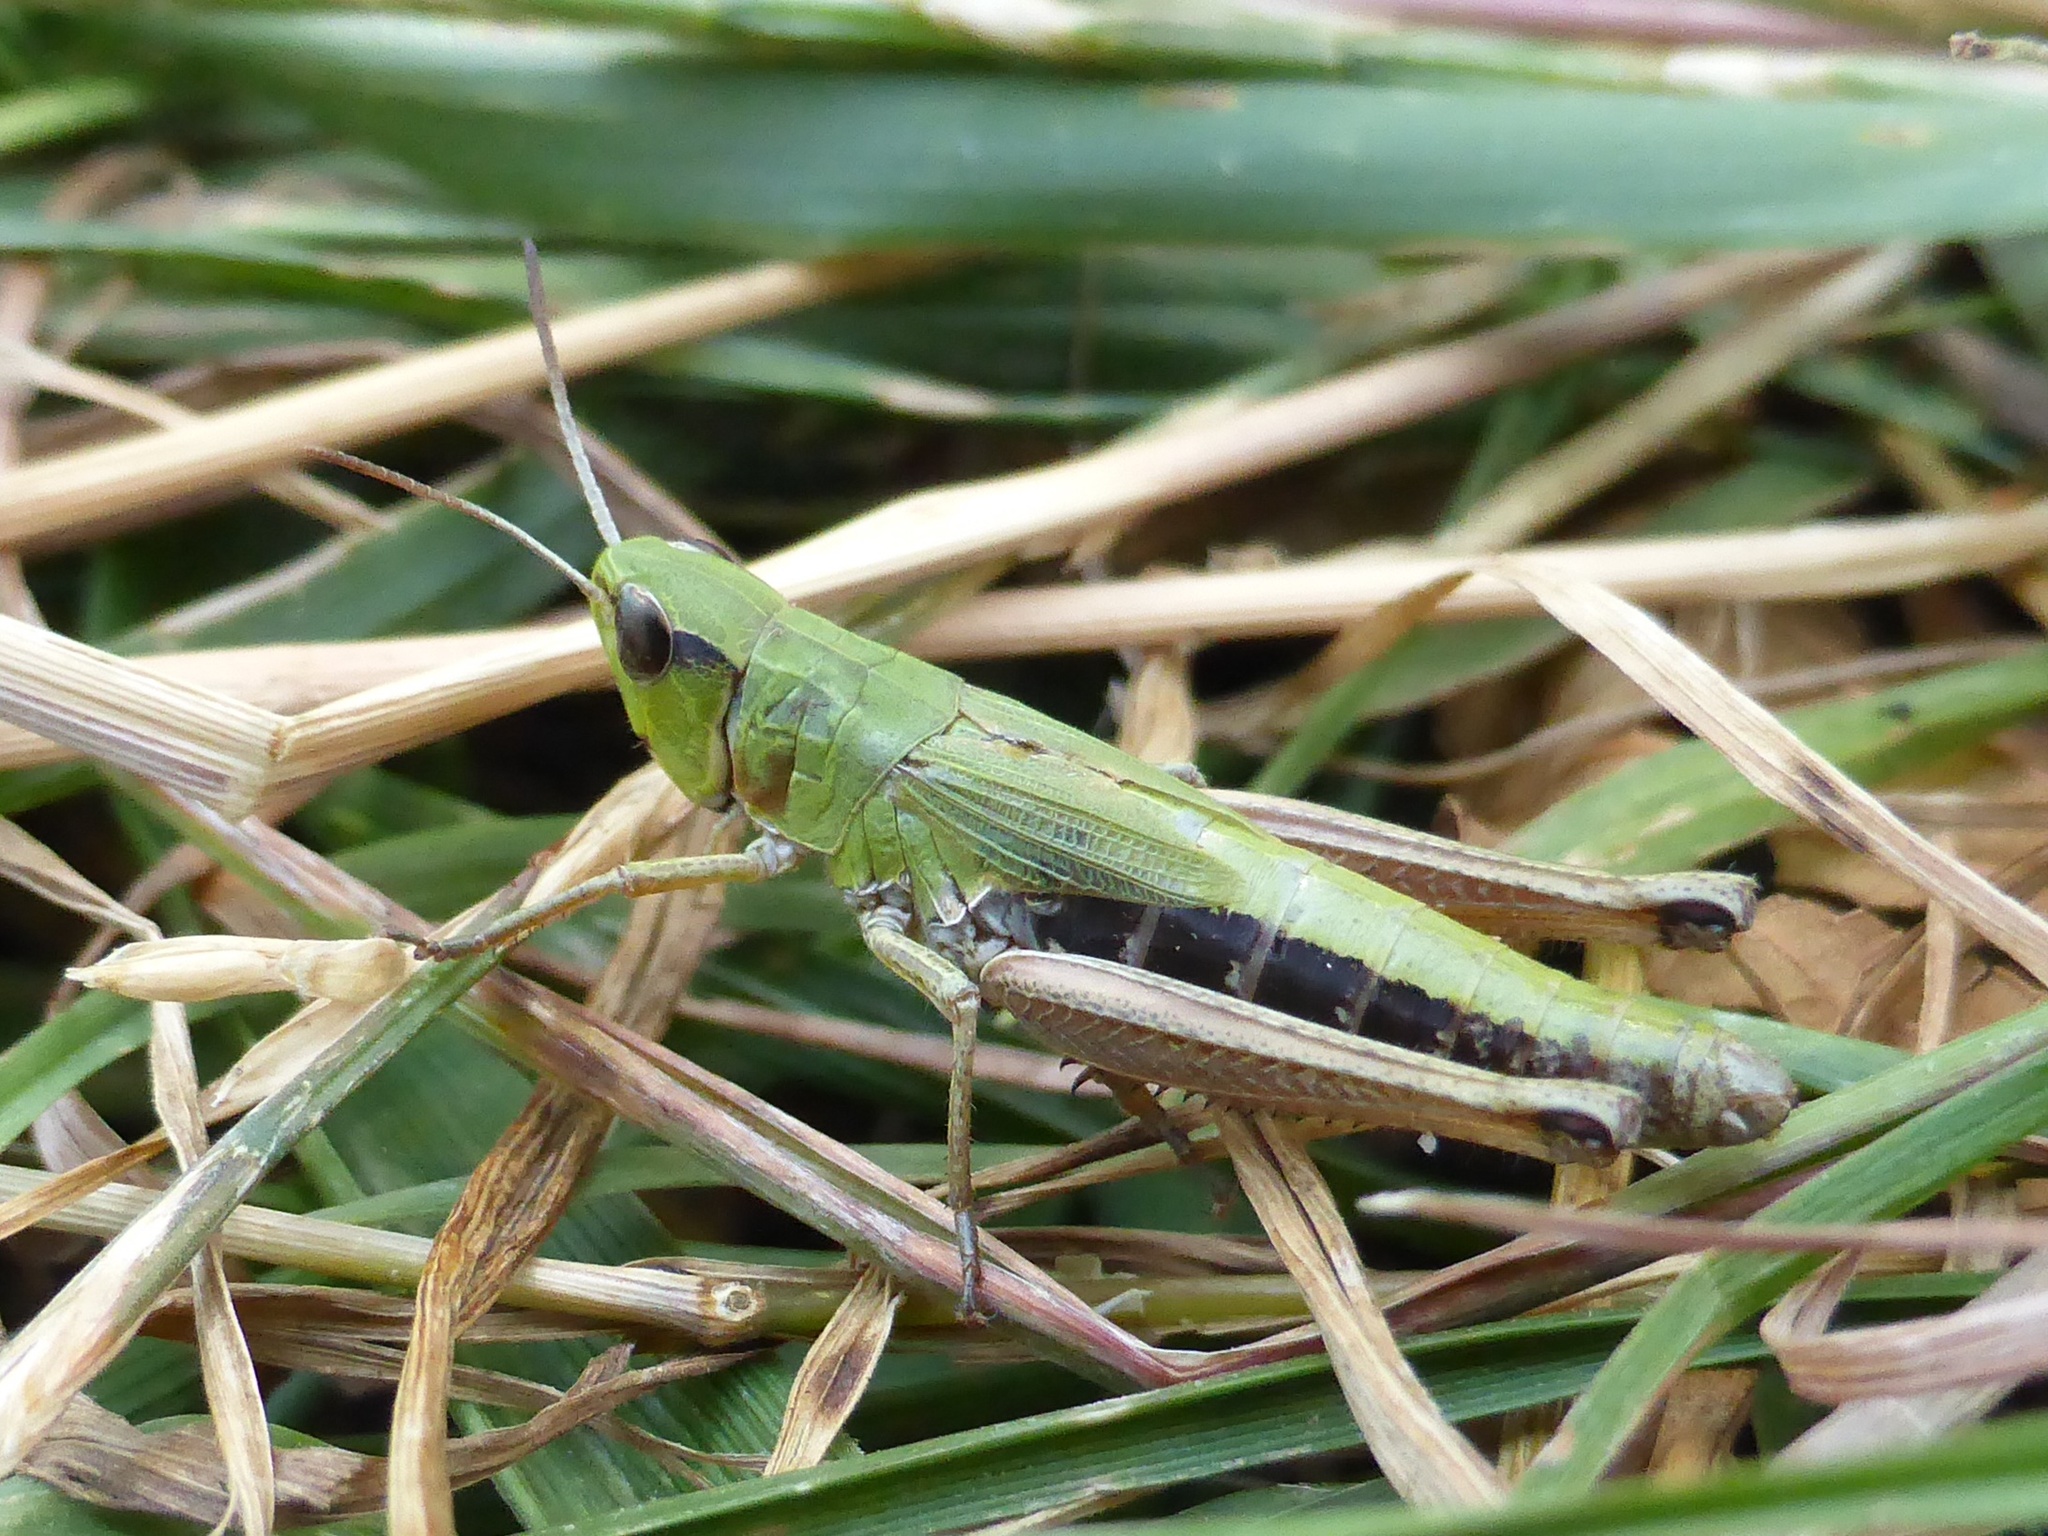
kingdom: Animalia
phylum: Arthropoda
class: Insecta
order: Orthoptera
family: Acrididae
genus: Pseudochorthippus
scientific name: Pseudochorthippus parallelus
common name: Meadow grasshopper
